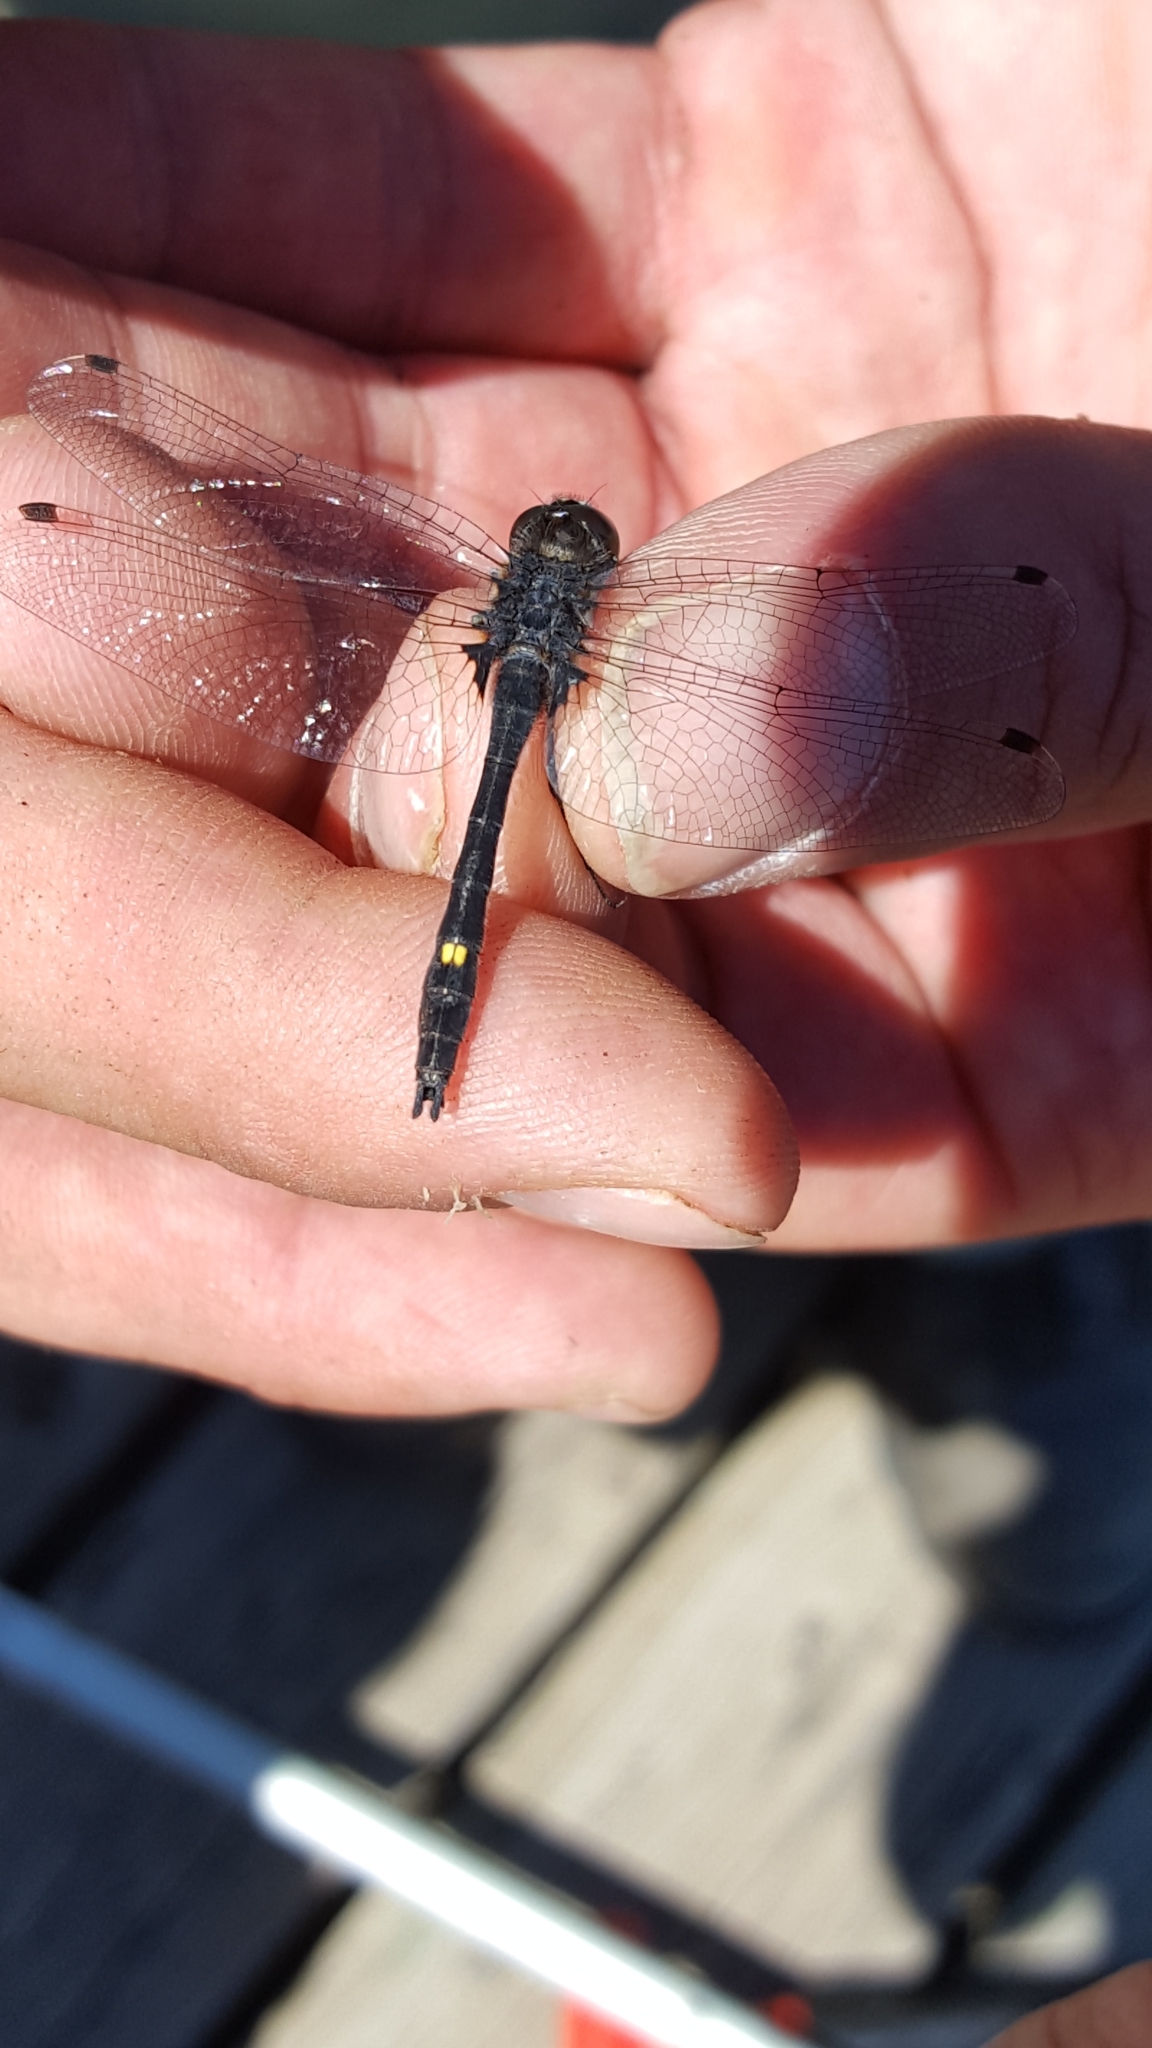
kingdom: Animalia
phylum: Arthropoda
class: Insecta
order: Odonata
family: Libellulidae
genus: Leucorrhinia
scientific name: Leucorrhinia intacta
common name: Dot-tailed whiteface
